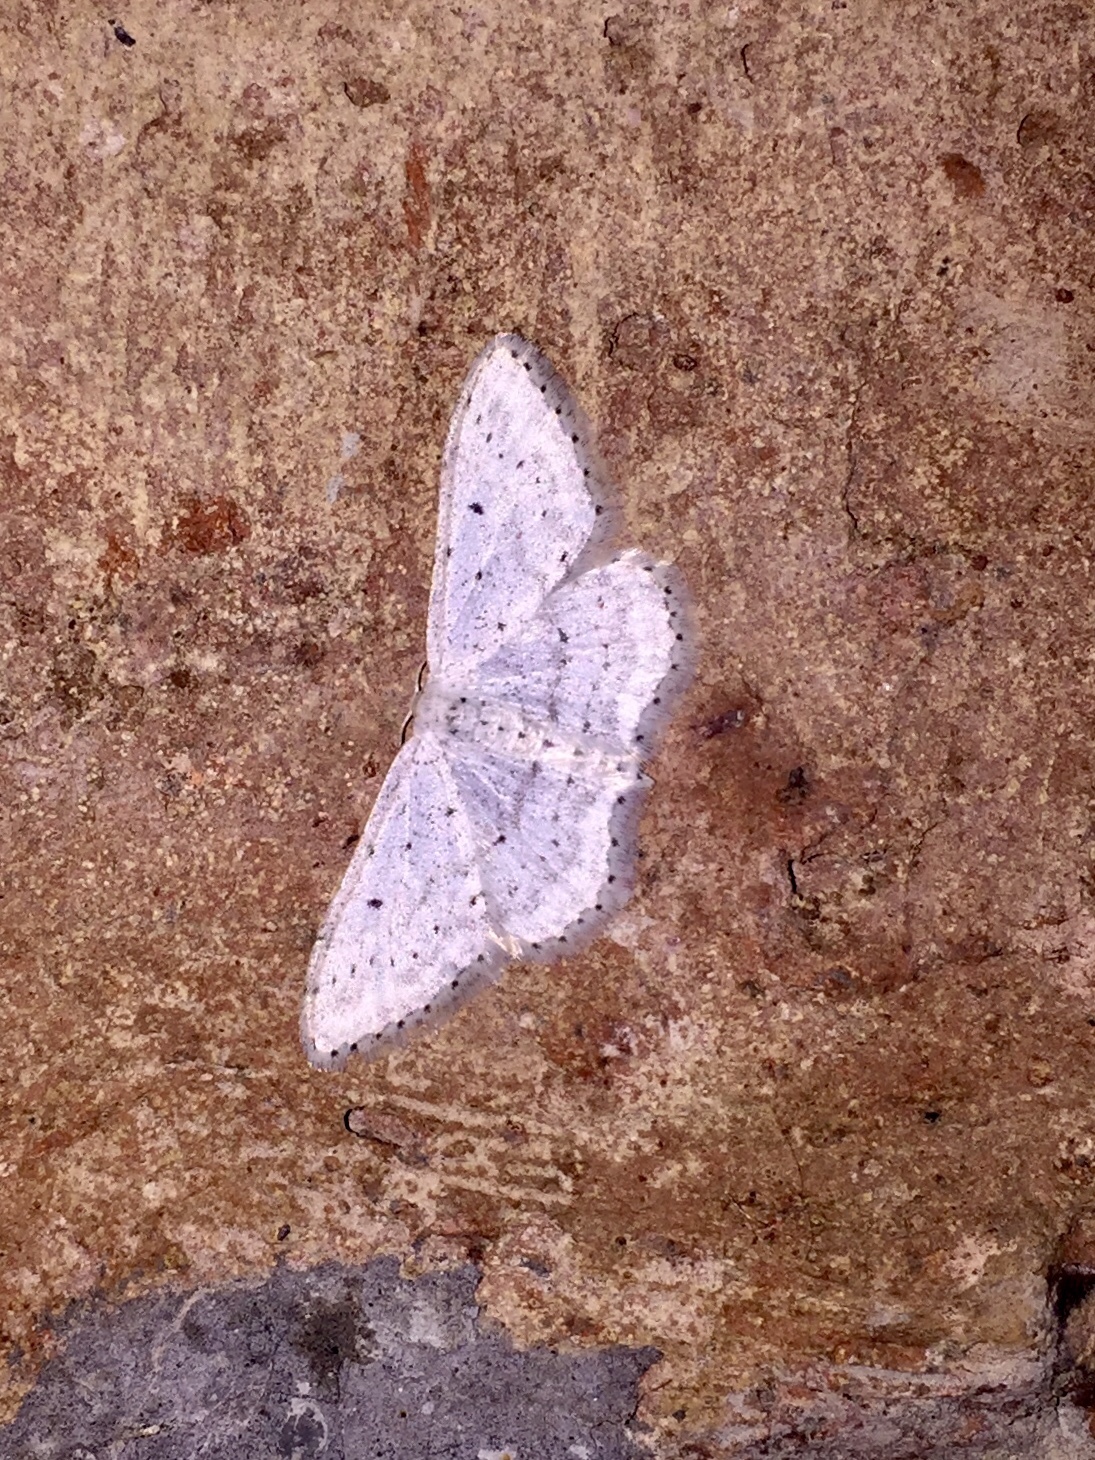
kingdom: Animalia
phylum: Arthropoda
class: Insecta
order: Lepidoptera
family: Geometridae
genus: Idaea
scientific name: Idaea seriata
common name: Small dusty wave
